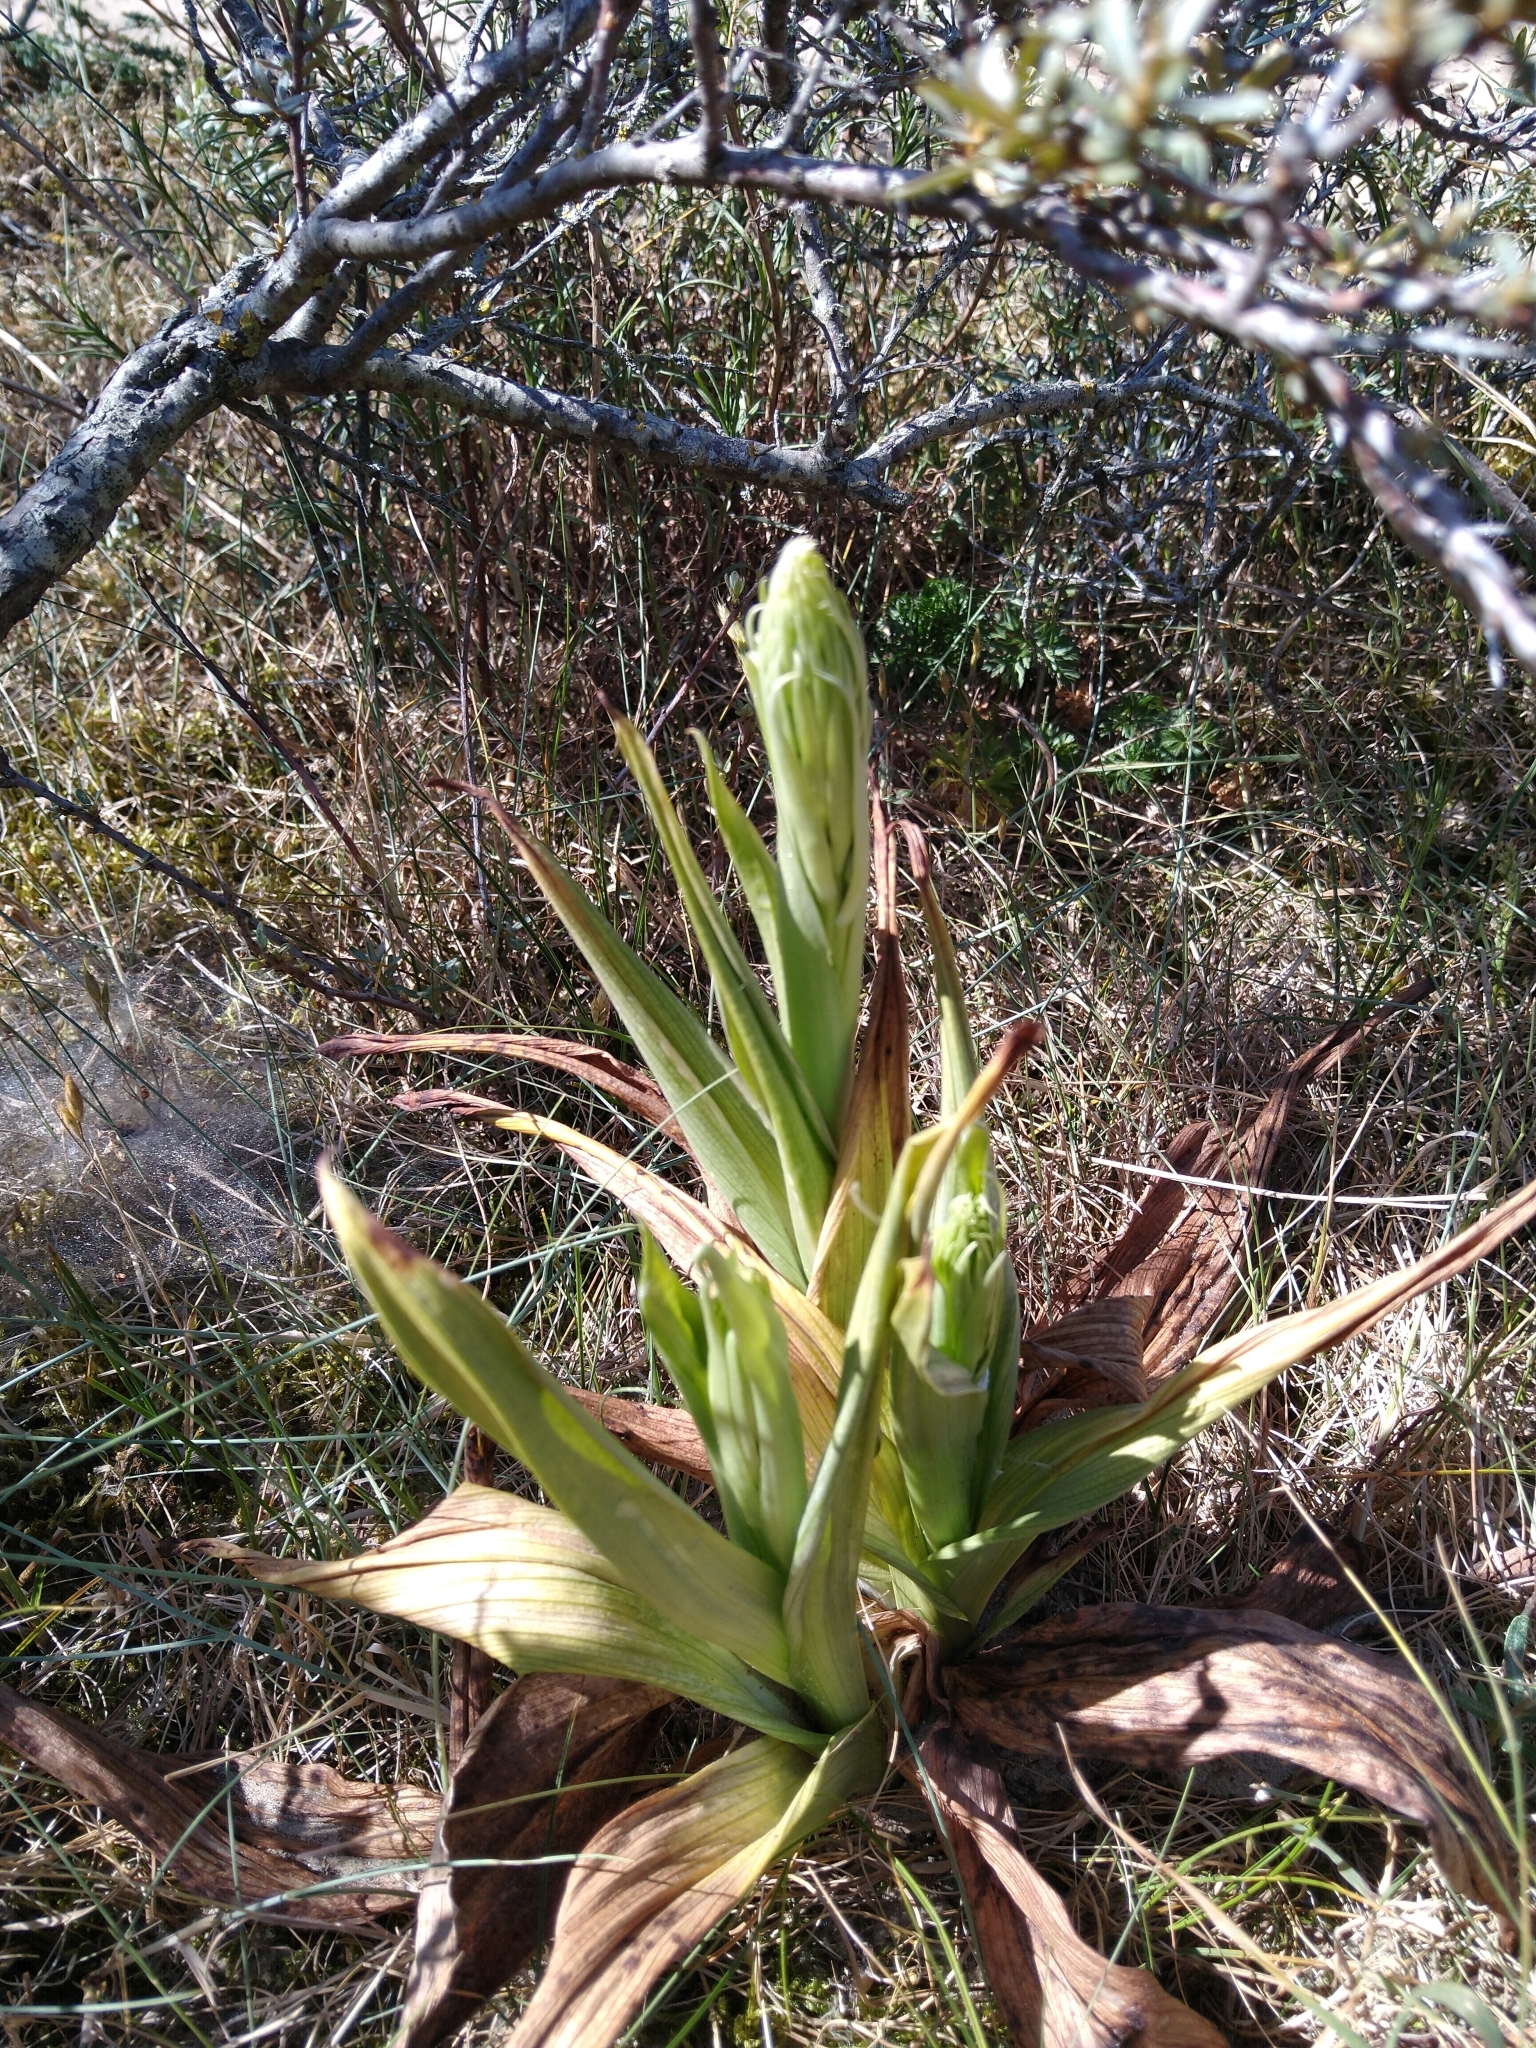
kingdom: Plantae
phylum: Tracheophyta
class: Liliopsida
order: Asparagales
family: Orchidaceae
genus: Himantoglossum
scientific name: Himantoglossum hircinum
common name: Lizard orchid
